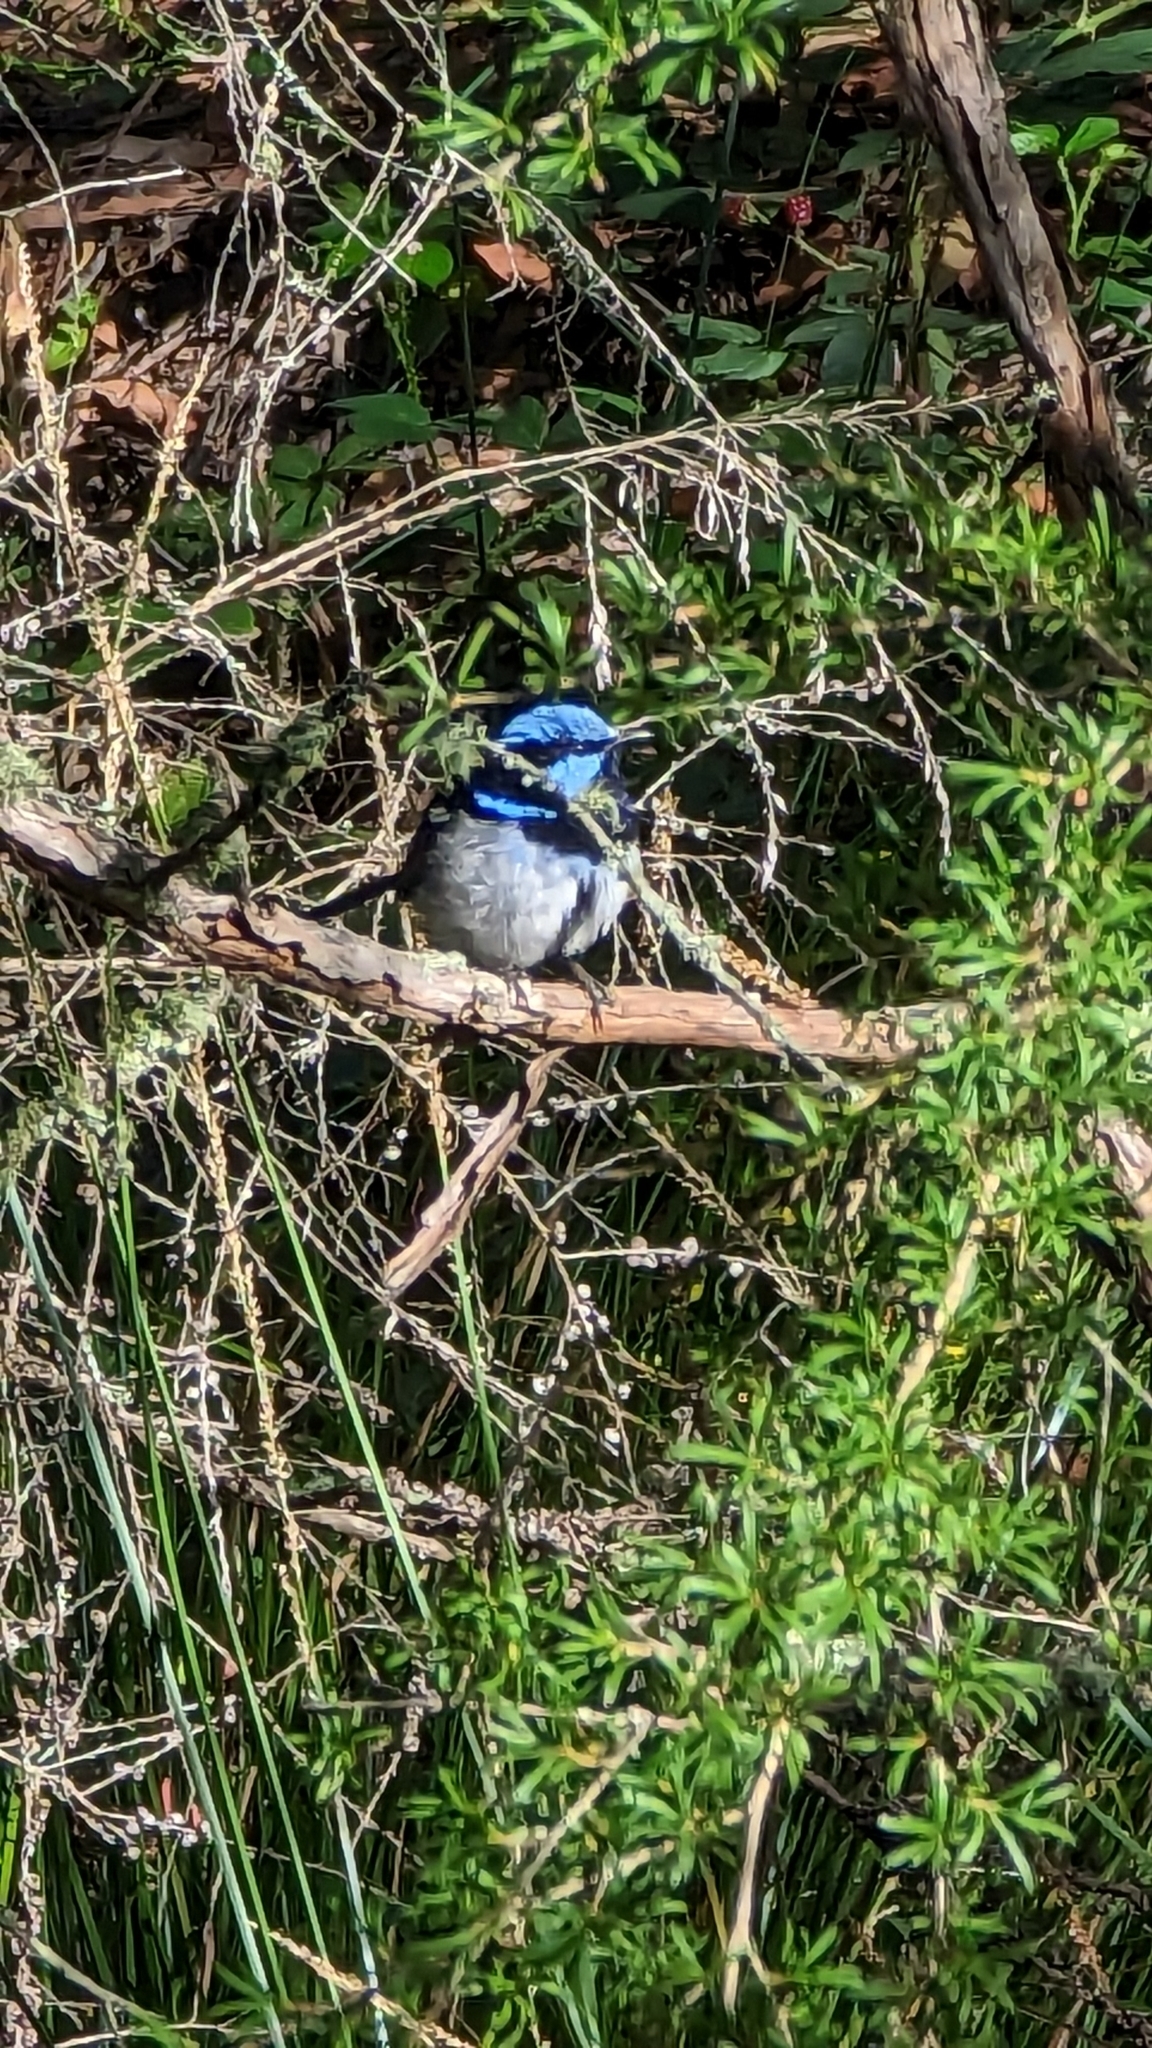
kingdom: Animalia
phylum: Chordata
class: Aves
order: Passeriformes
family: Maluridae
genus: Malurus
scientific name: Malurus cyaneus
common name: Superb fairywren
